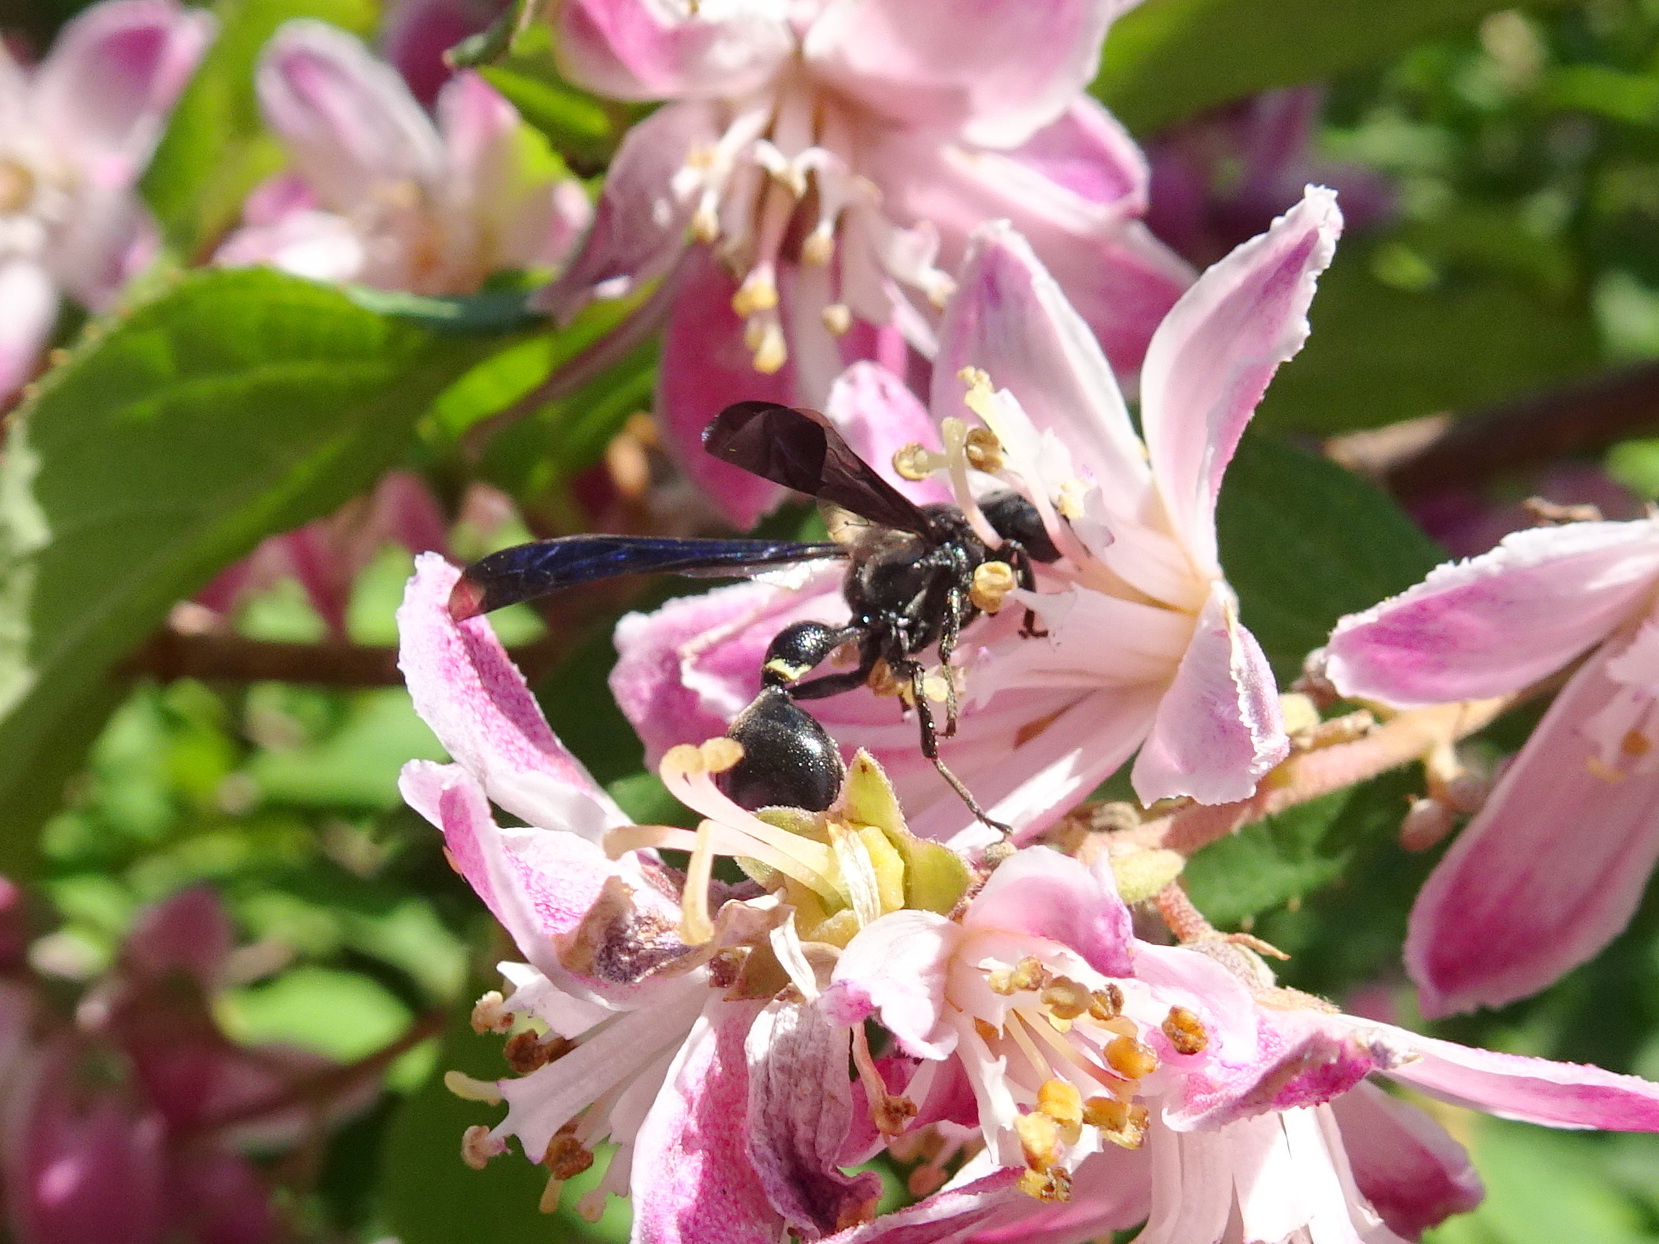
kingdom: Animalia
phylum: Arthropoda
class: Insecta
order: Hymenoptera
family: Eumenidae
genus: Zethus
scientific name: Zethus spinipes
